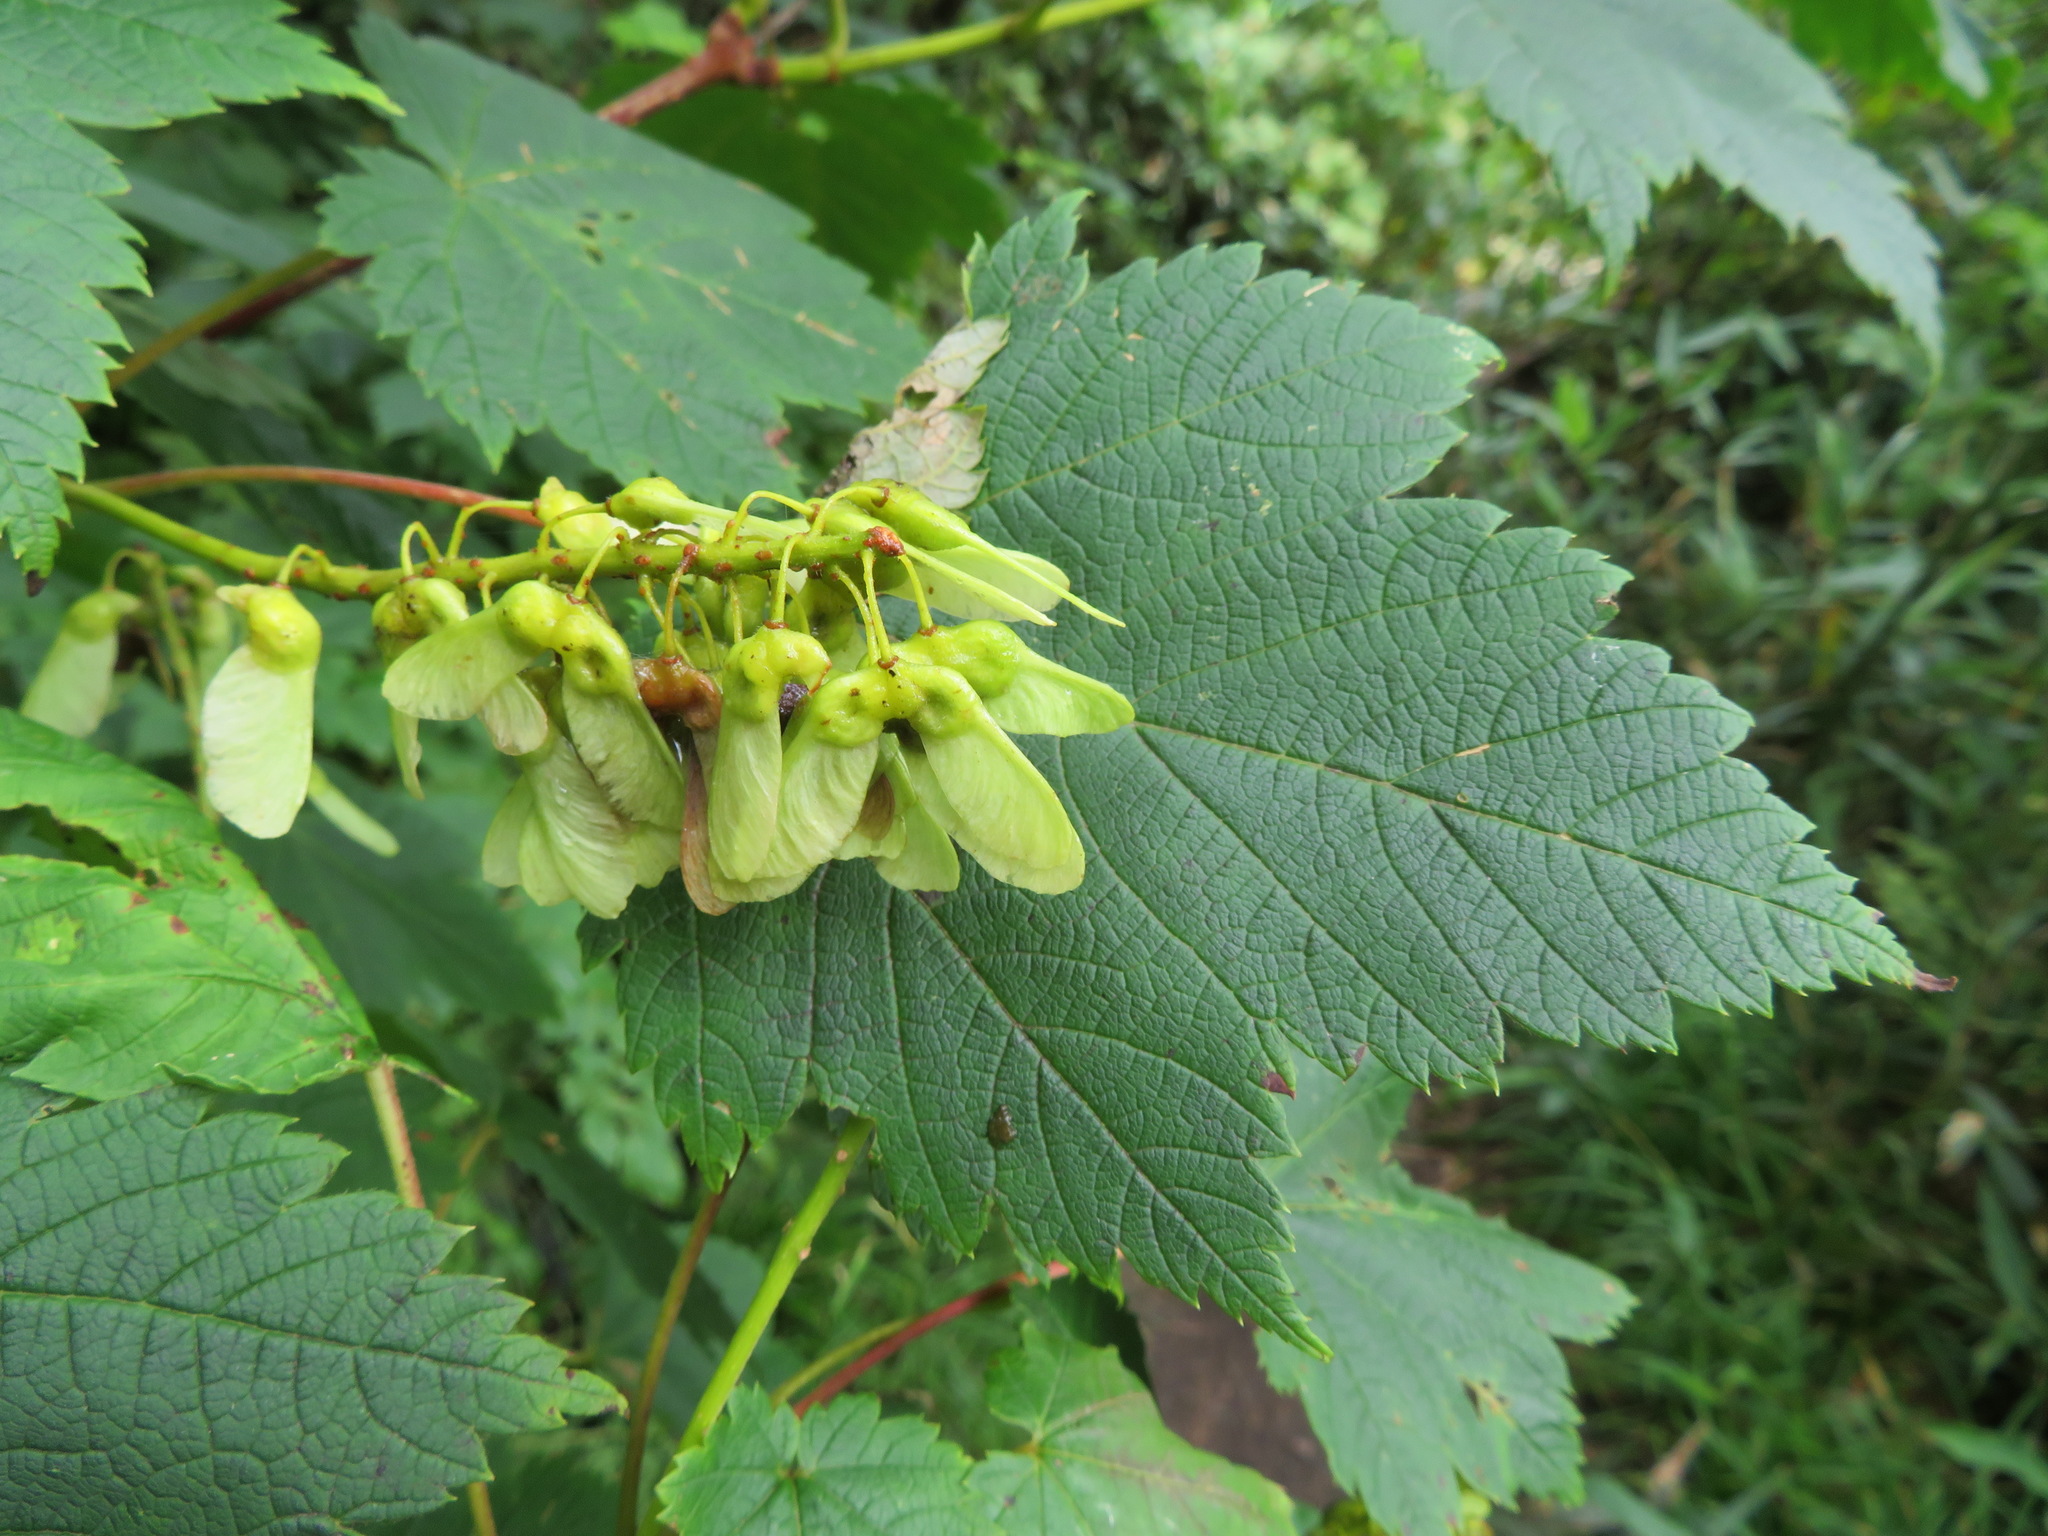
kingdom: Plantae
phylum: Tracheophyta
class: Magnoliopsida
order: Sapindales
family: Sapindaceae
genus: Acer
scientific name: Acer ukurunduense
